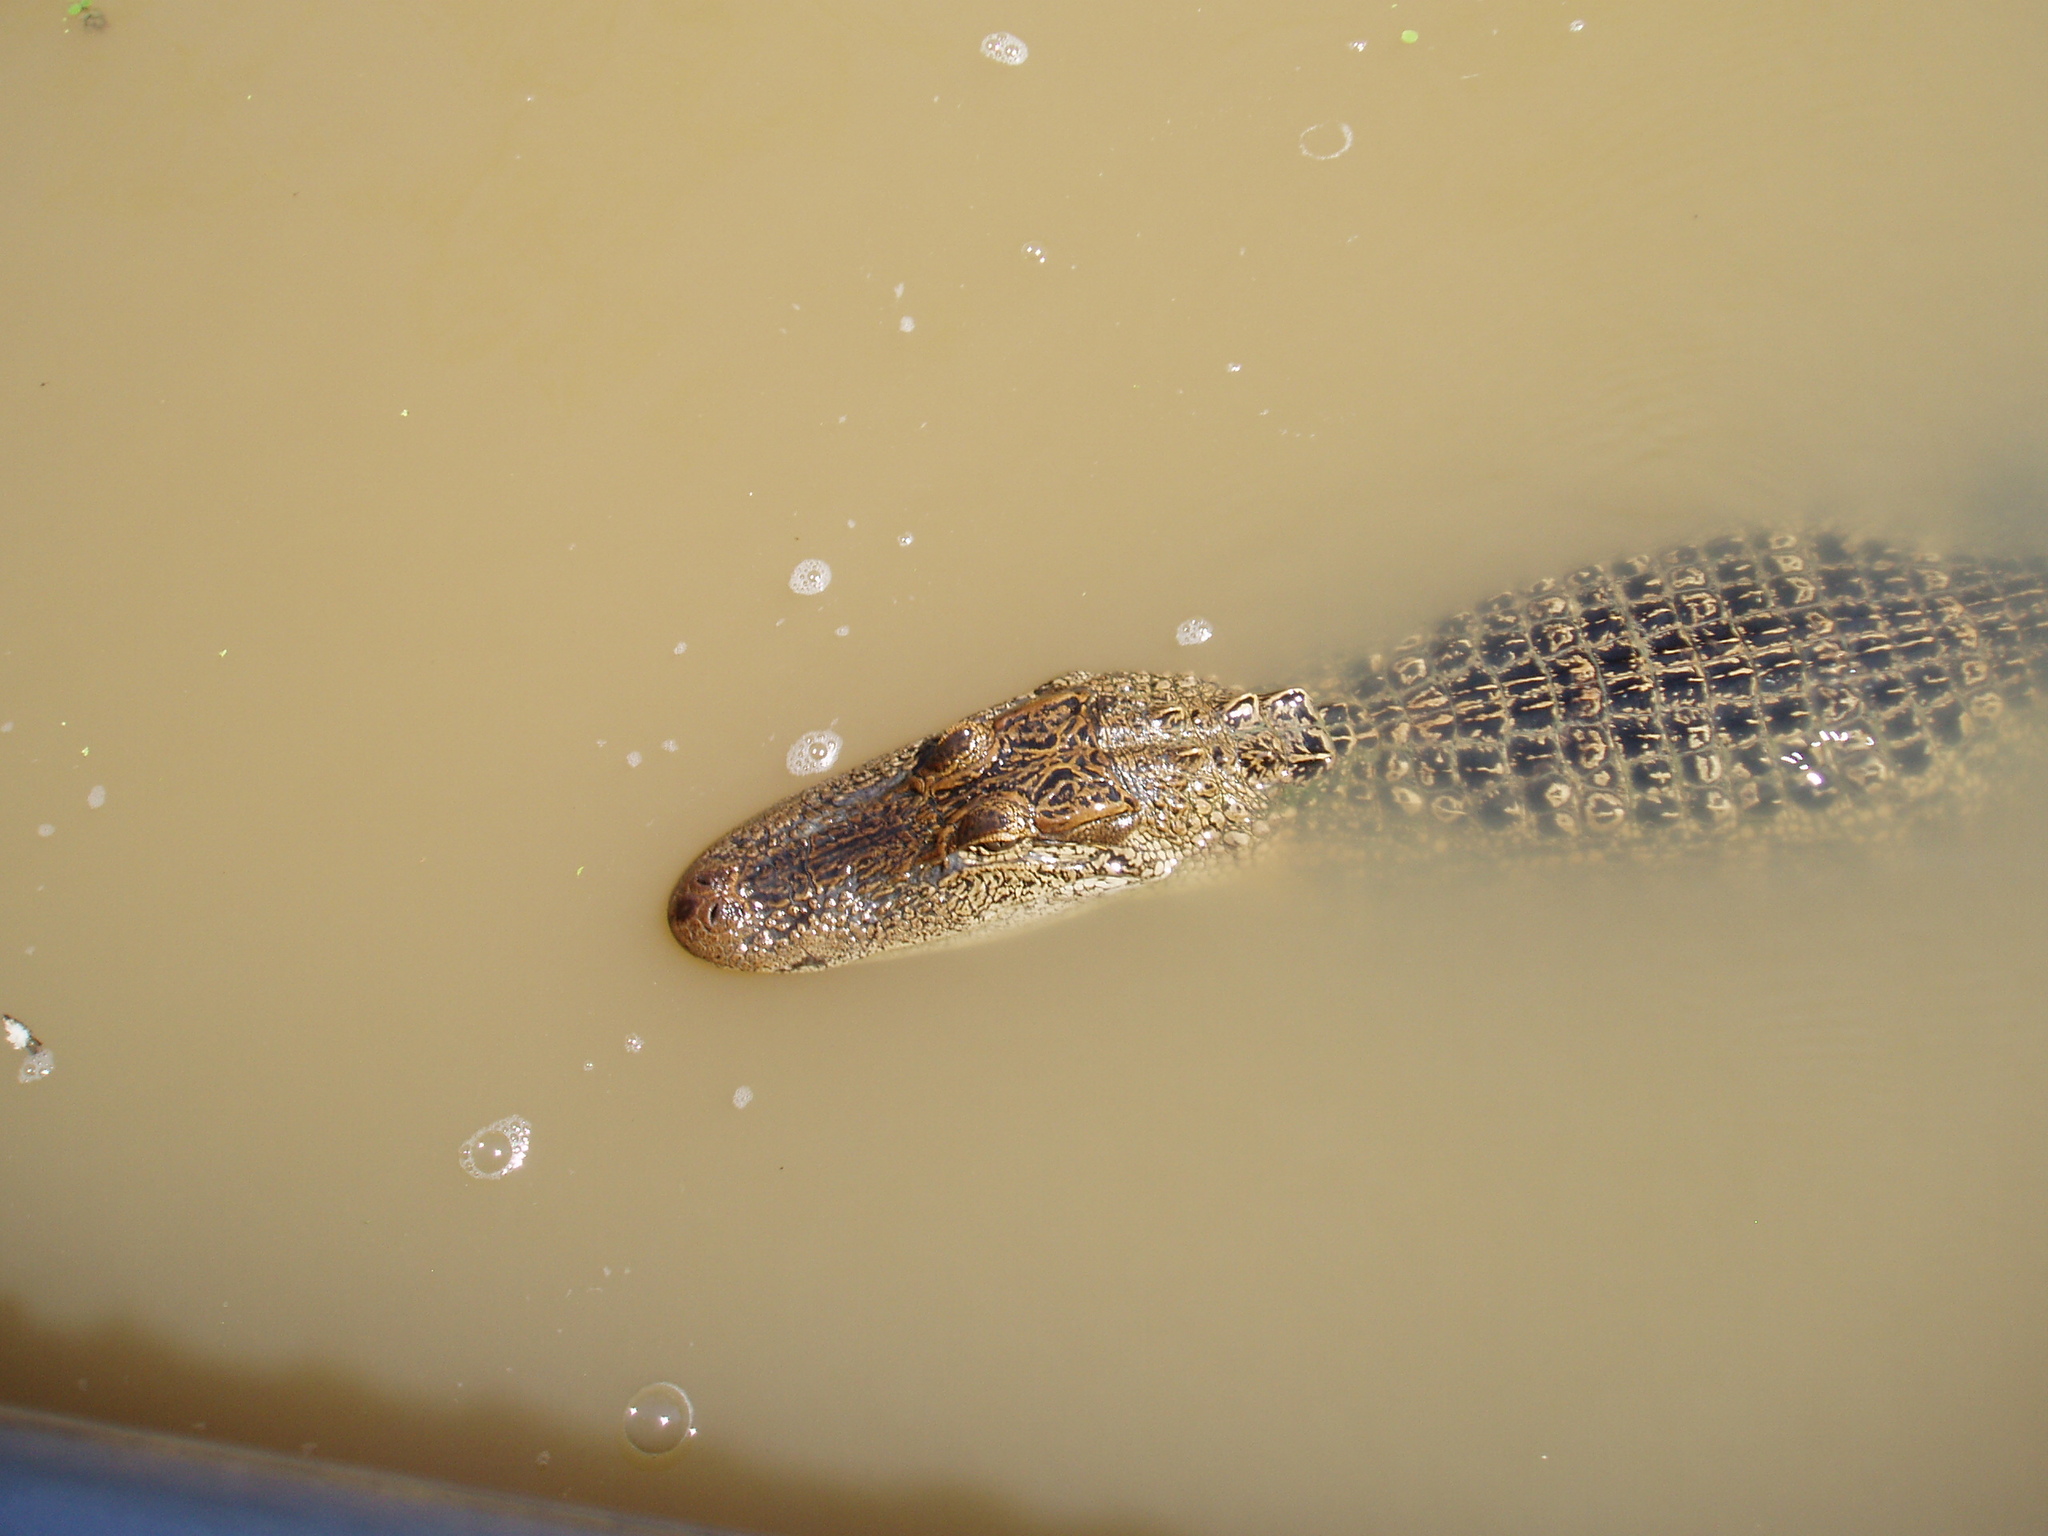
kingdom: Animalia
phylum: Chordata
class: Crocodylia
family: Alligatoridae
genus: Alligator
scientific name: Alligator mississippiensis
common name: American alligator
